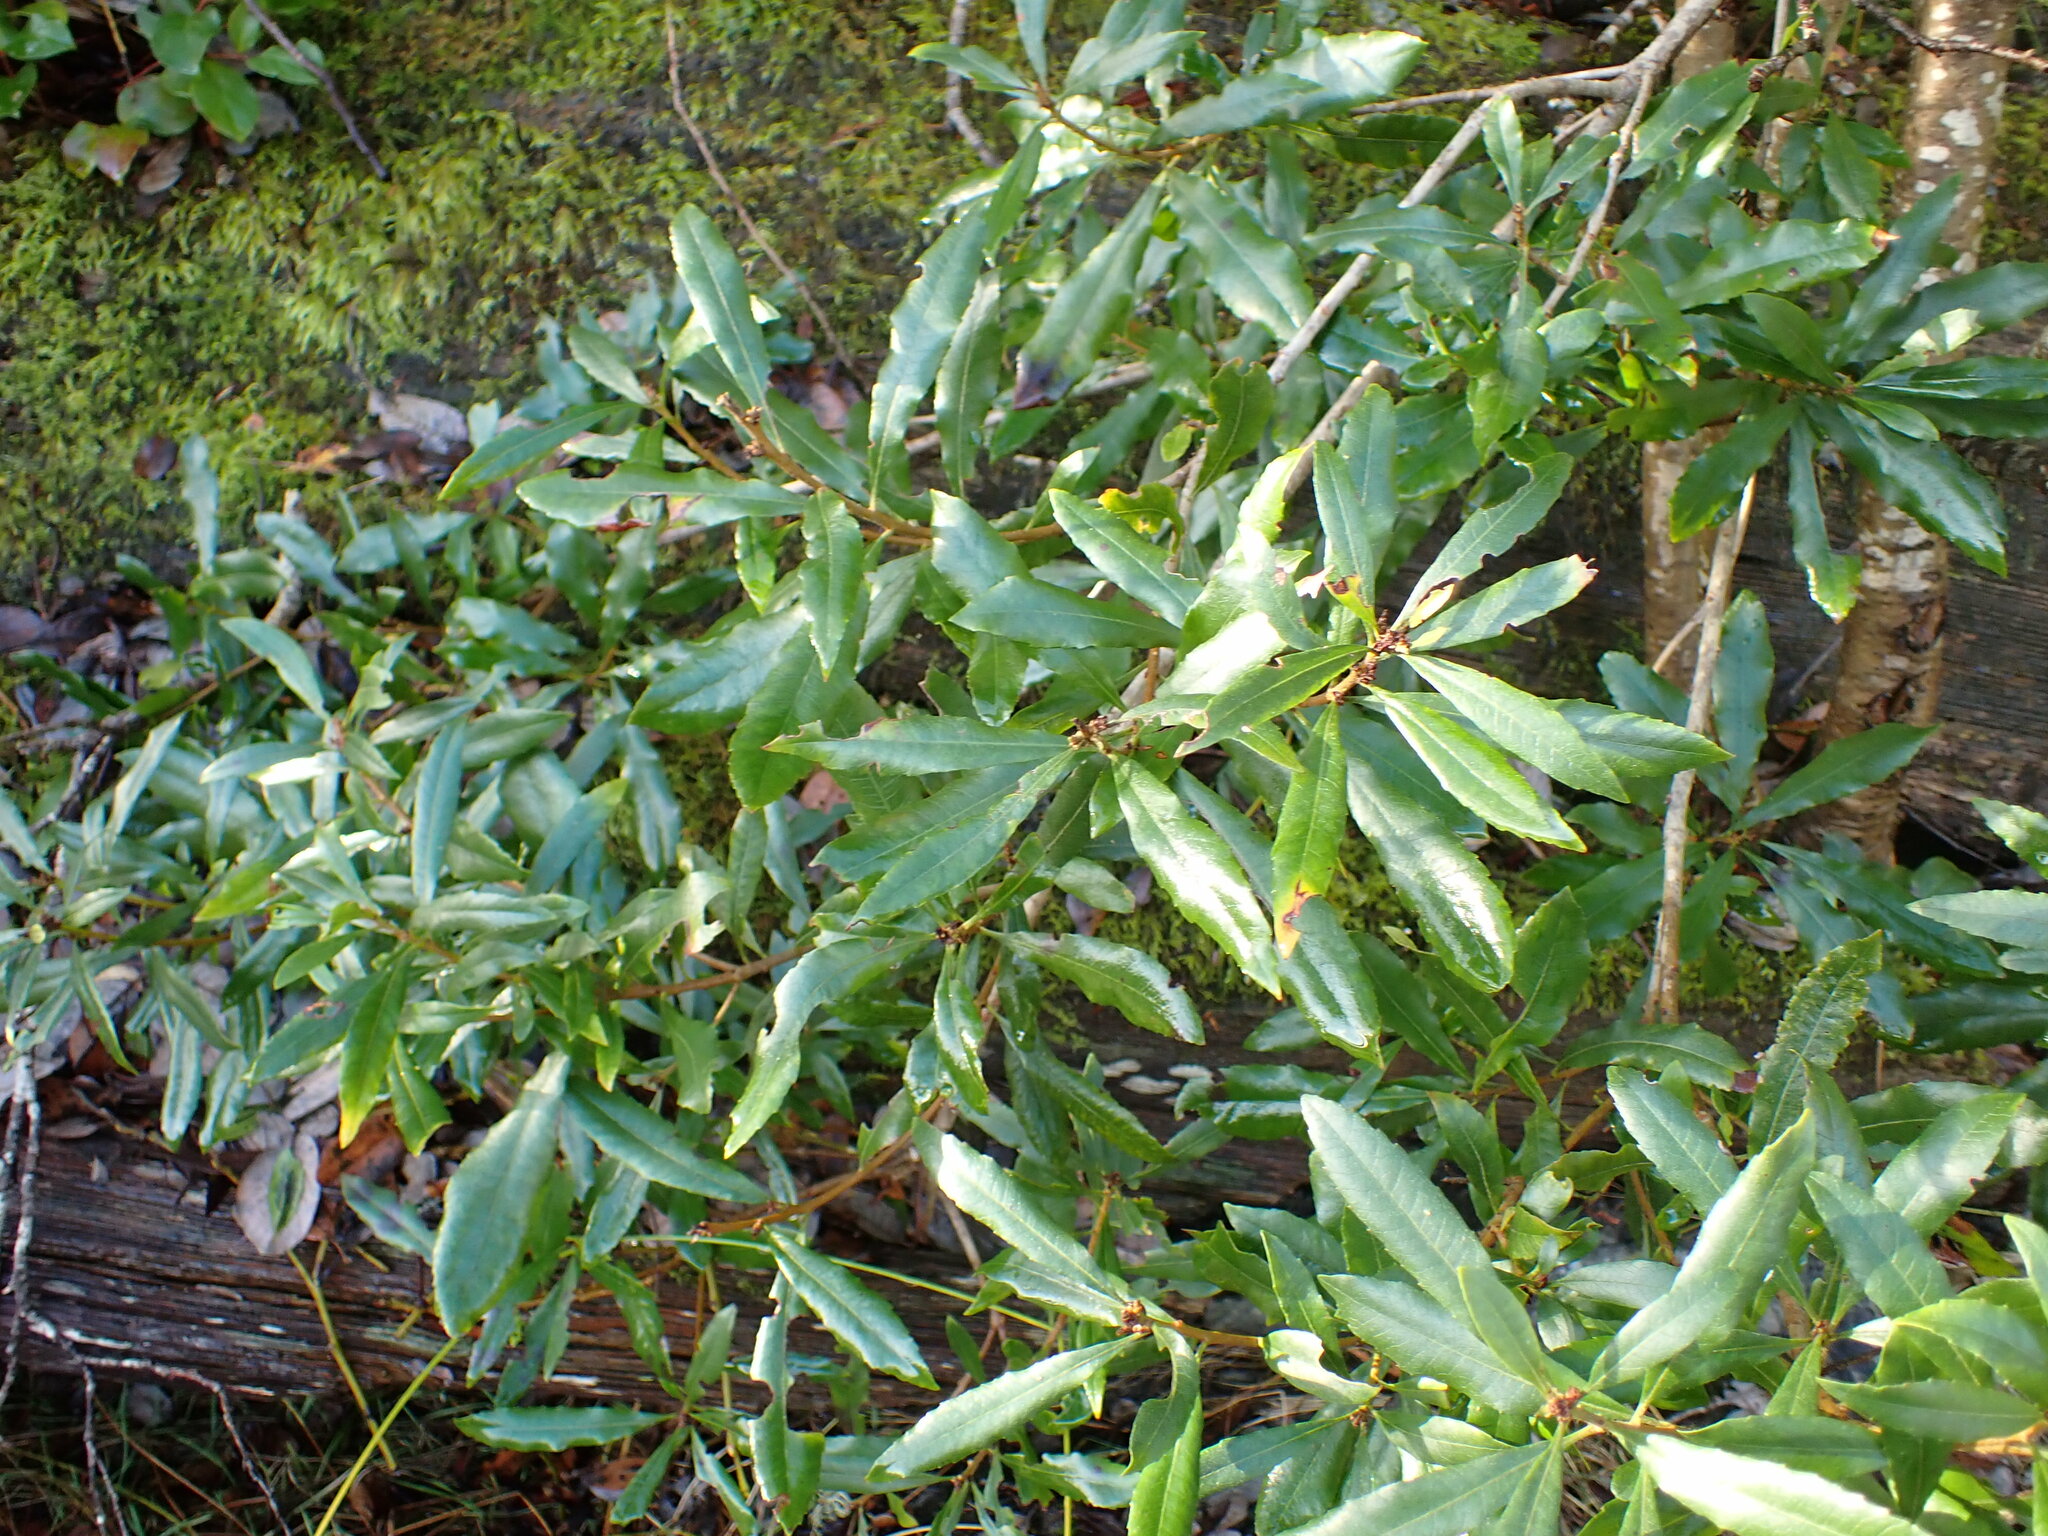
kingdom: Plantae
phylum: Tracheophyta
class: Magnoliopsida
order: Fagales
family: Myricaceae
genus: Morella
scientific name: Morella californica
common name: California wax-myrtle
